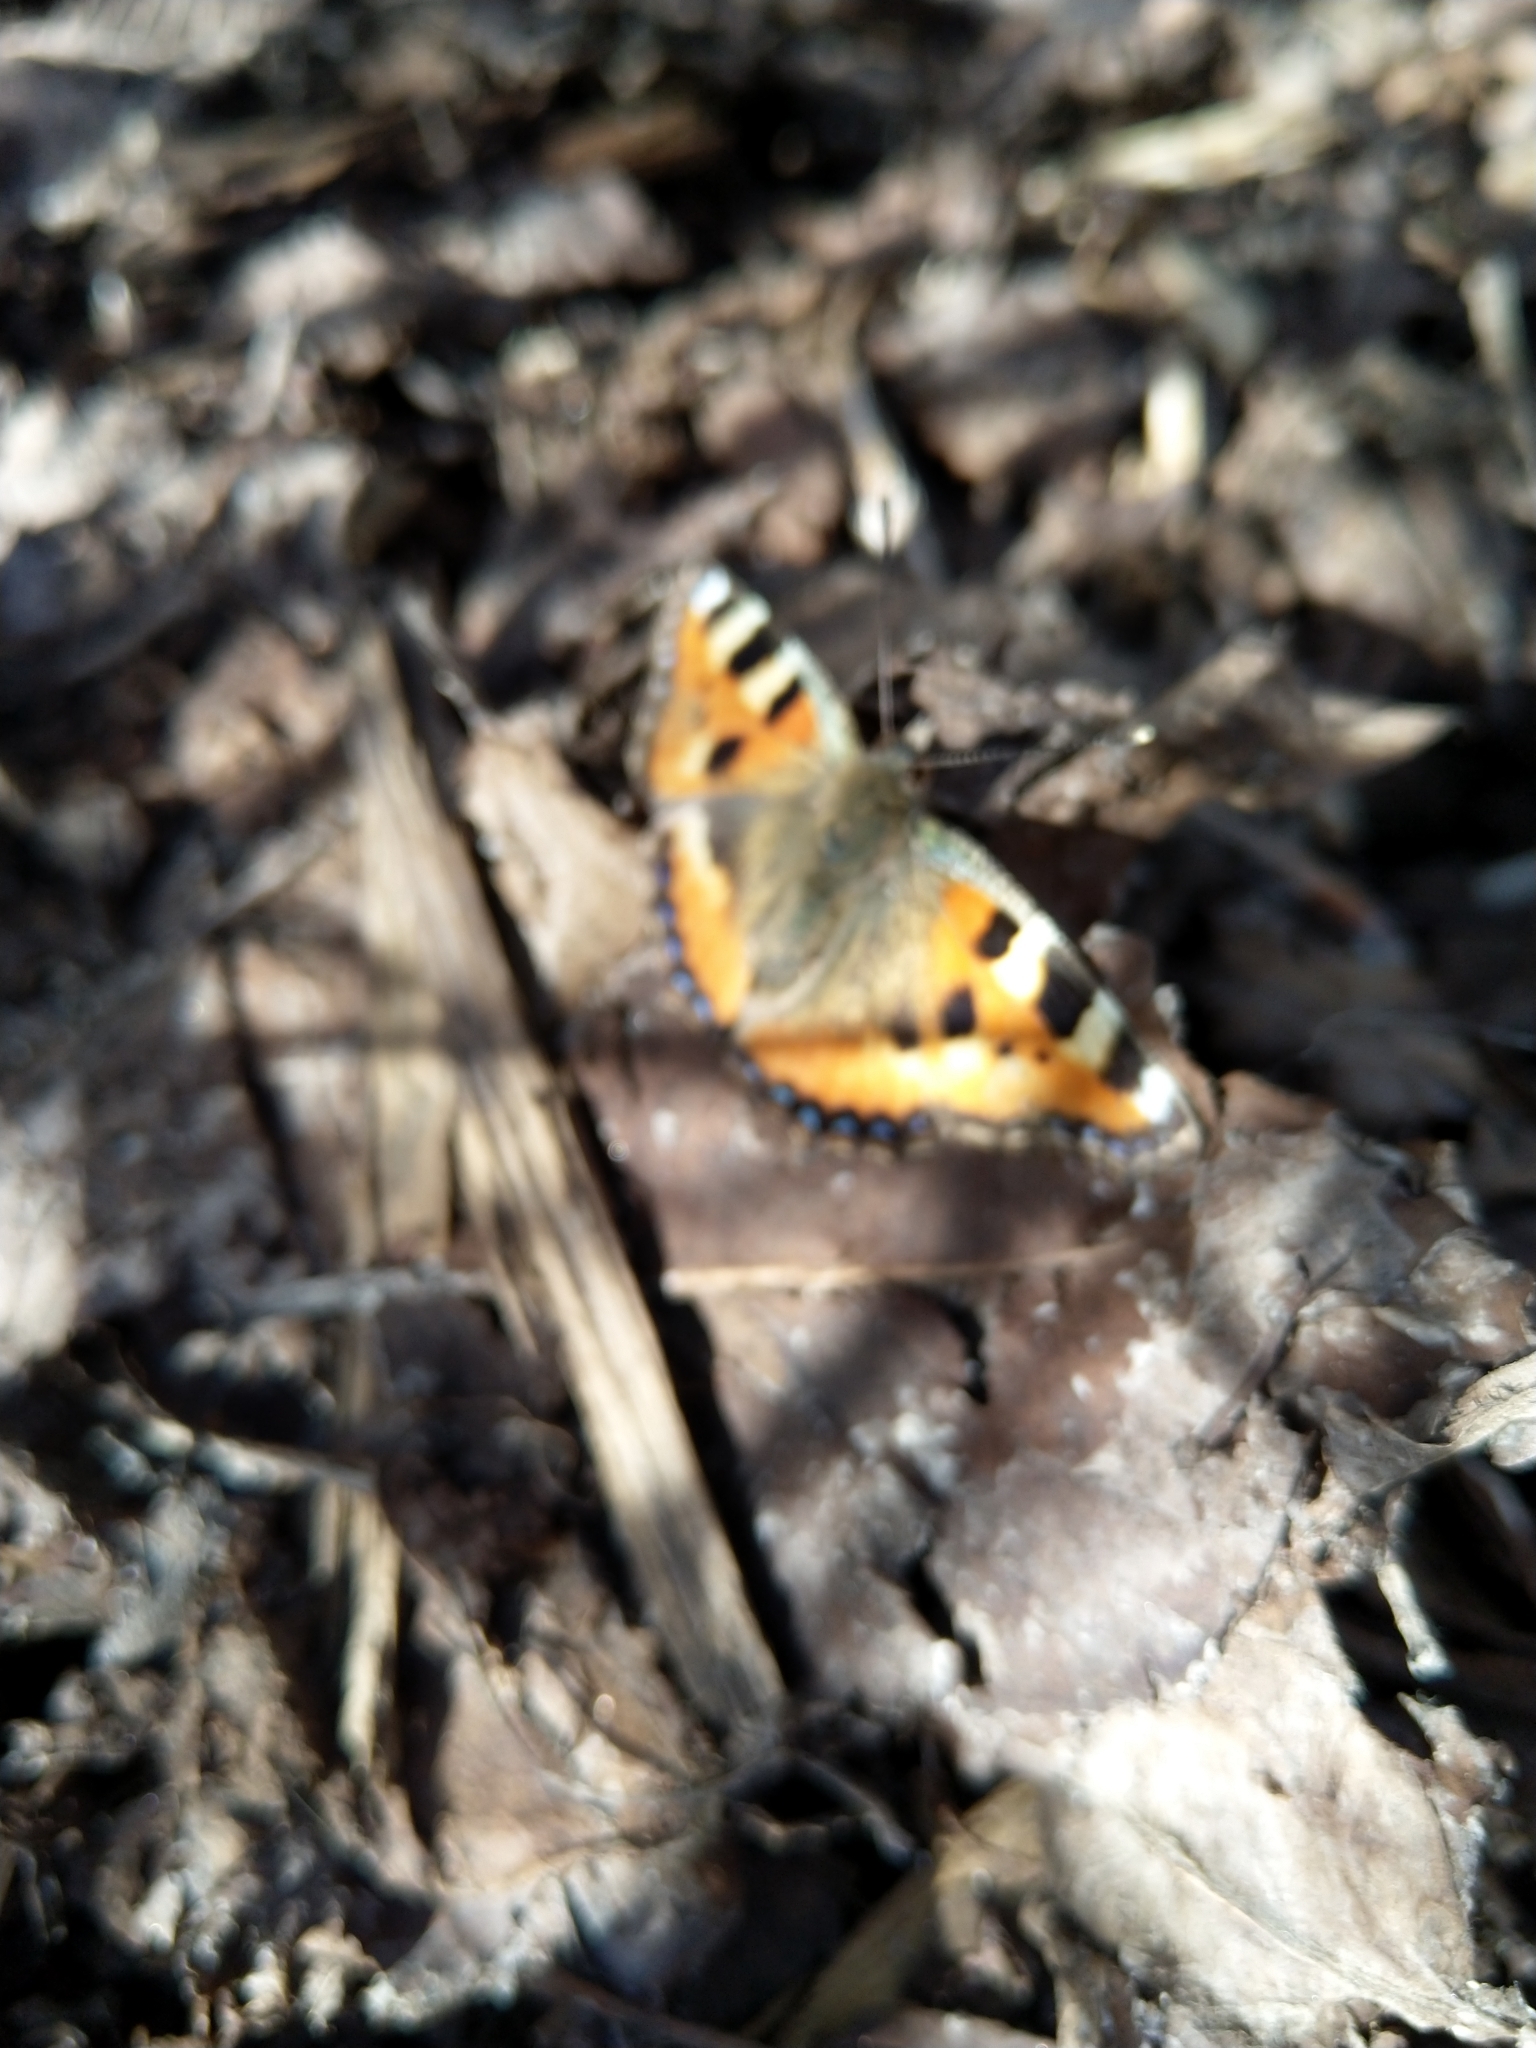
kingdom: Animalia
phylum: Arthropoda
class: Insecta
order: Lepidoptera
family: Nymphalidae
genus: Aglais
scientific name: Aglais urticae
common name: Small tortoiseshell
